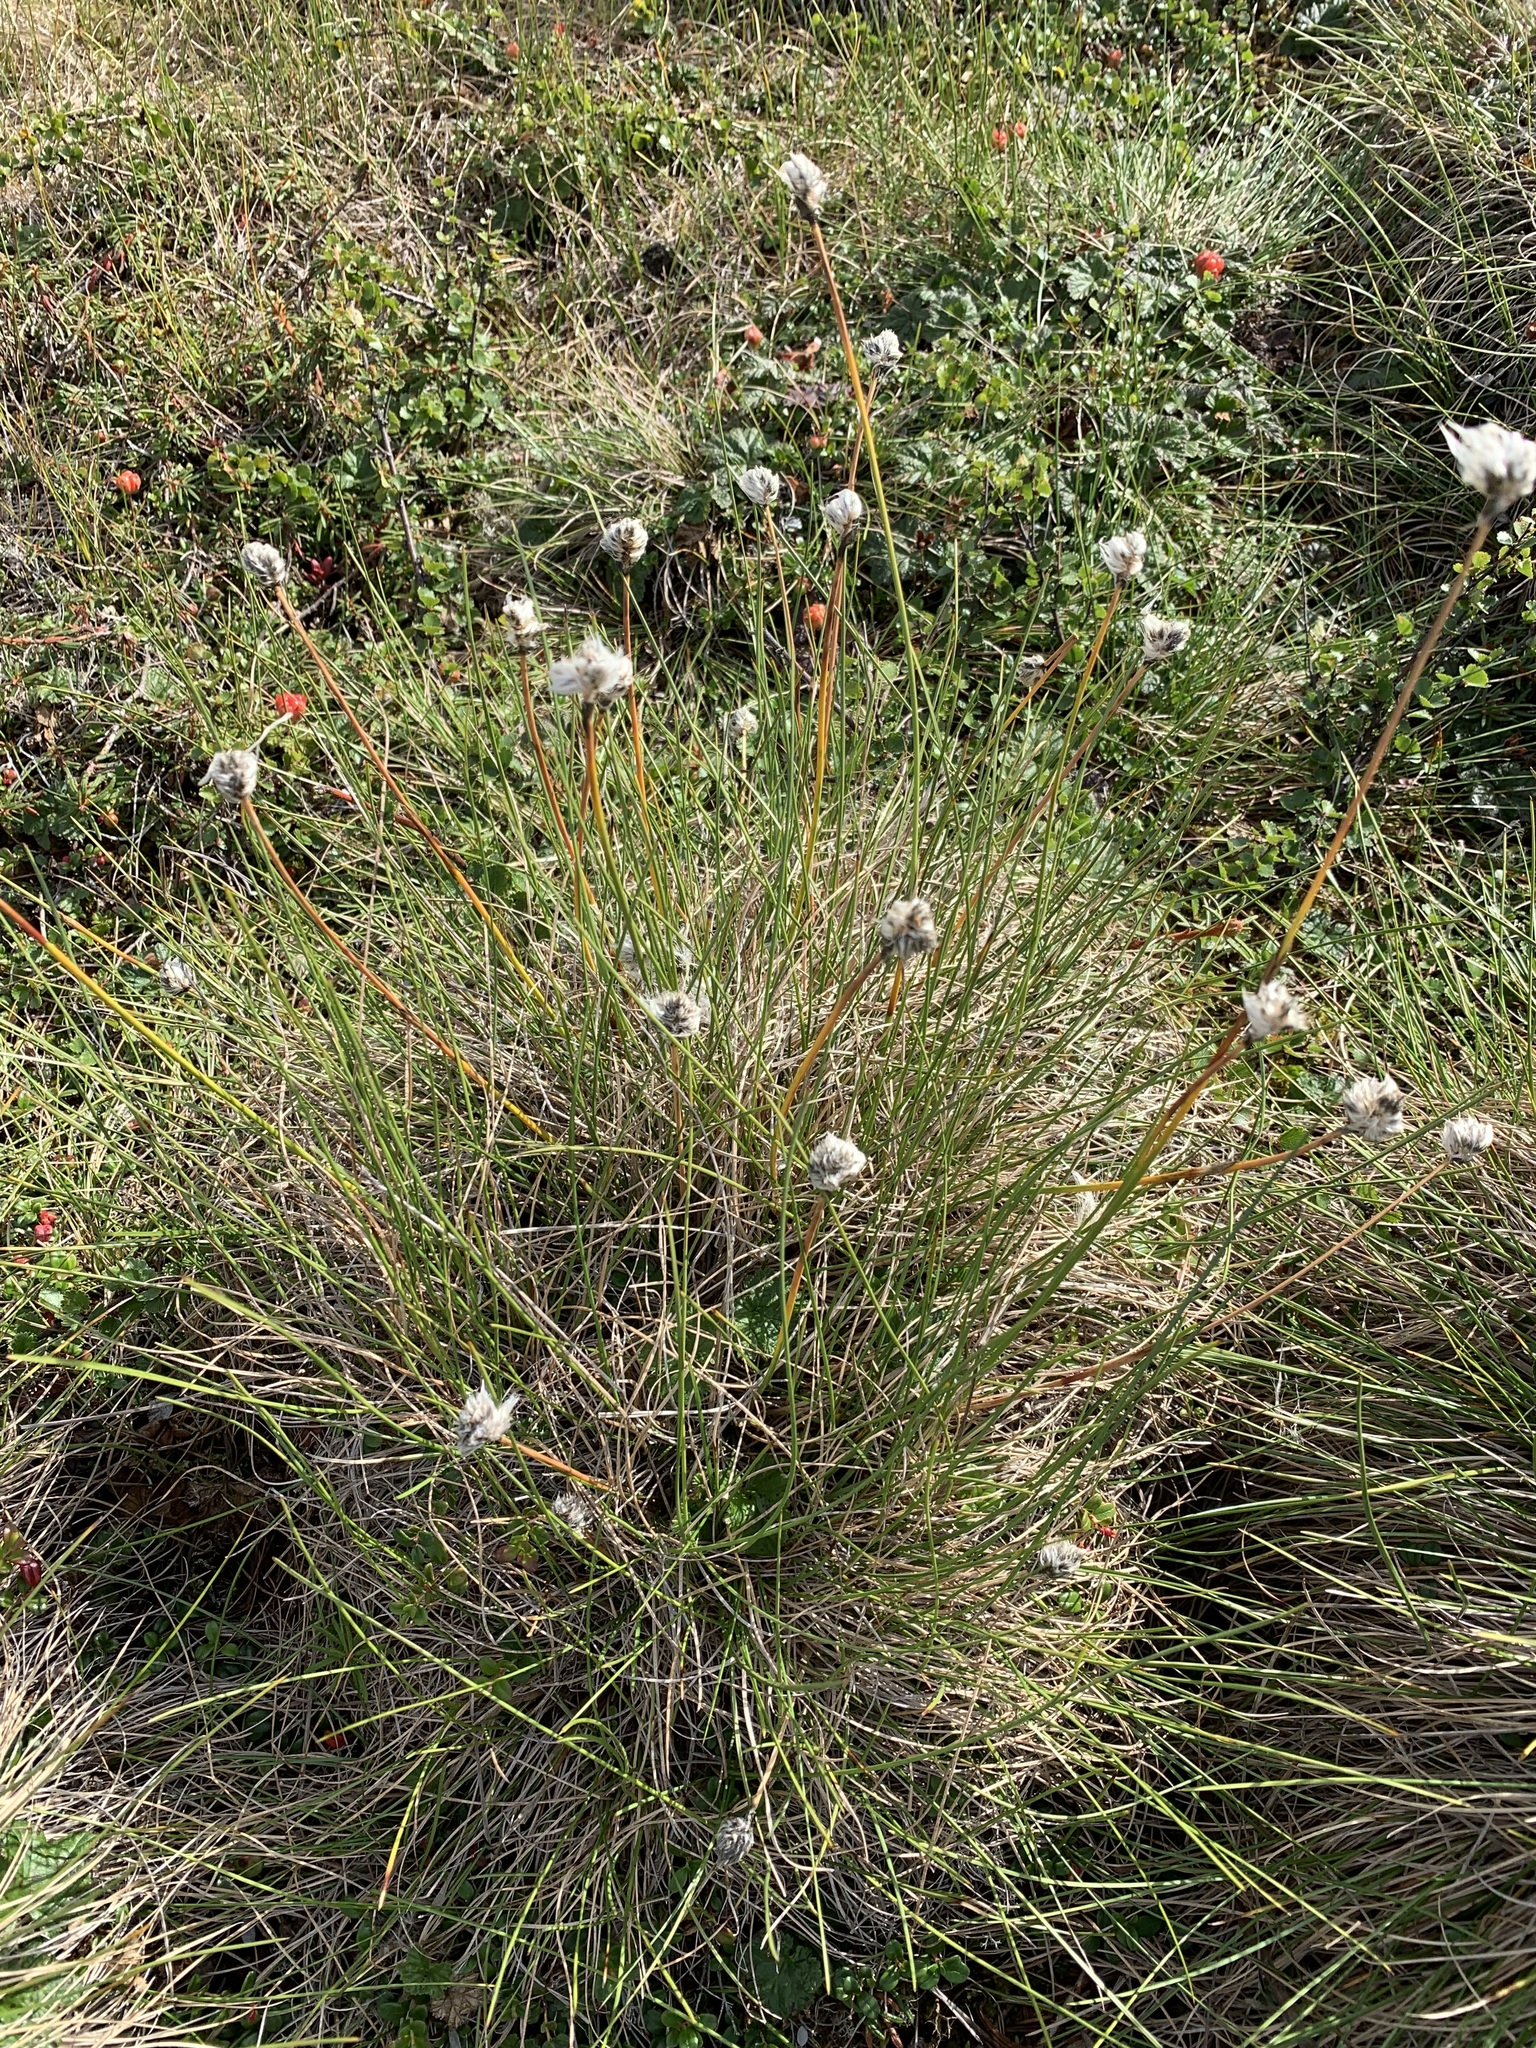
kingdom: Plantae
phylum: Tracheophyta
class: Liliopsida
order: Poales
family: Cyperaceae
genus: Eriophorum
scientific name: Eriophorum vaginatum
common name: Hare's-tail cottongrass
